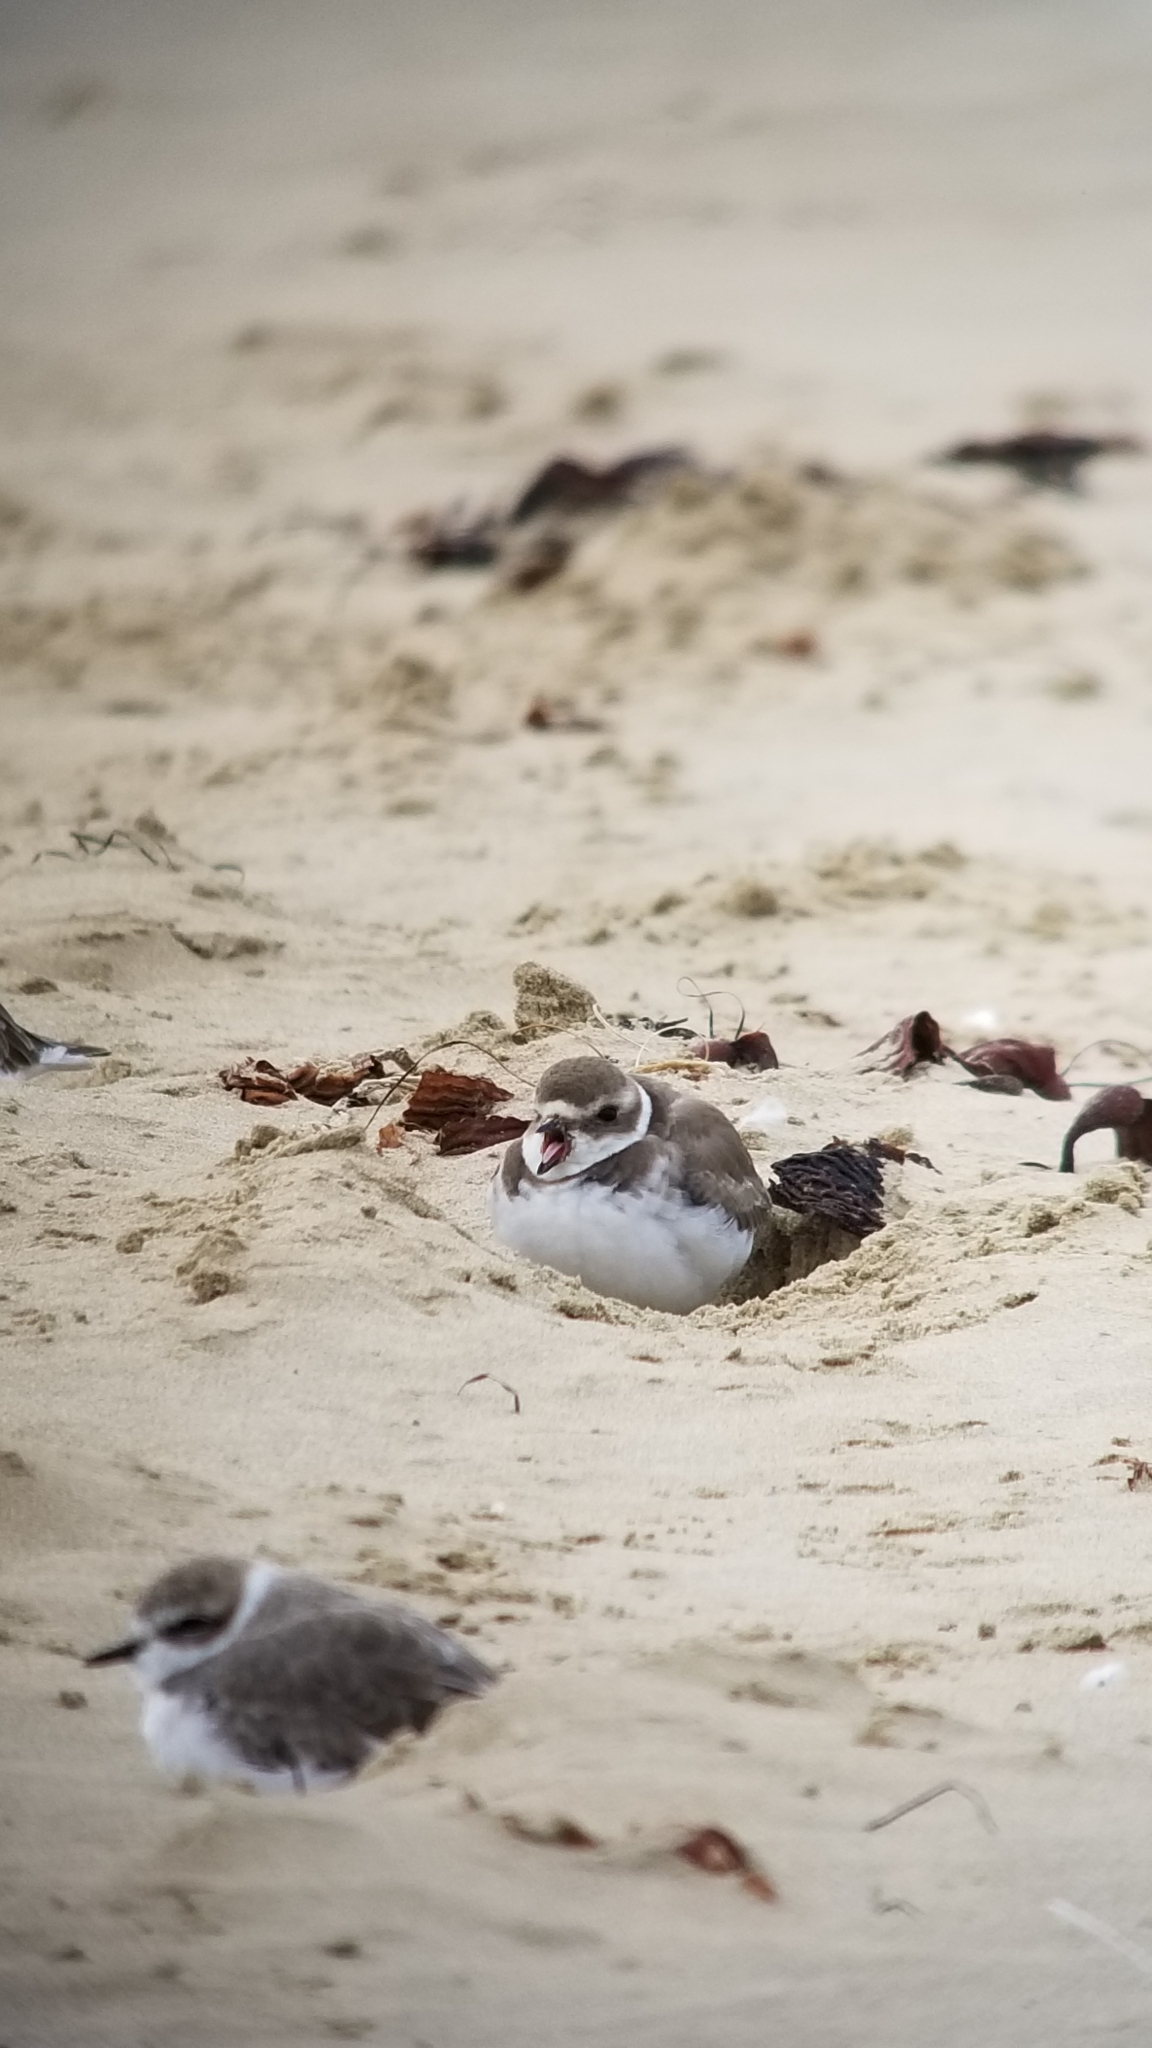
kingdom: Animalia
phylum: Chordata
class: Aves
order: Charadriiformes
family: Charadriidae
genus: Charadrius
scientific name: Charadrius semipalmatus
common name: Semipalmated plover
